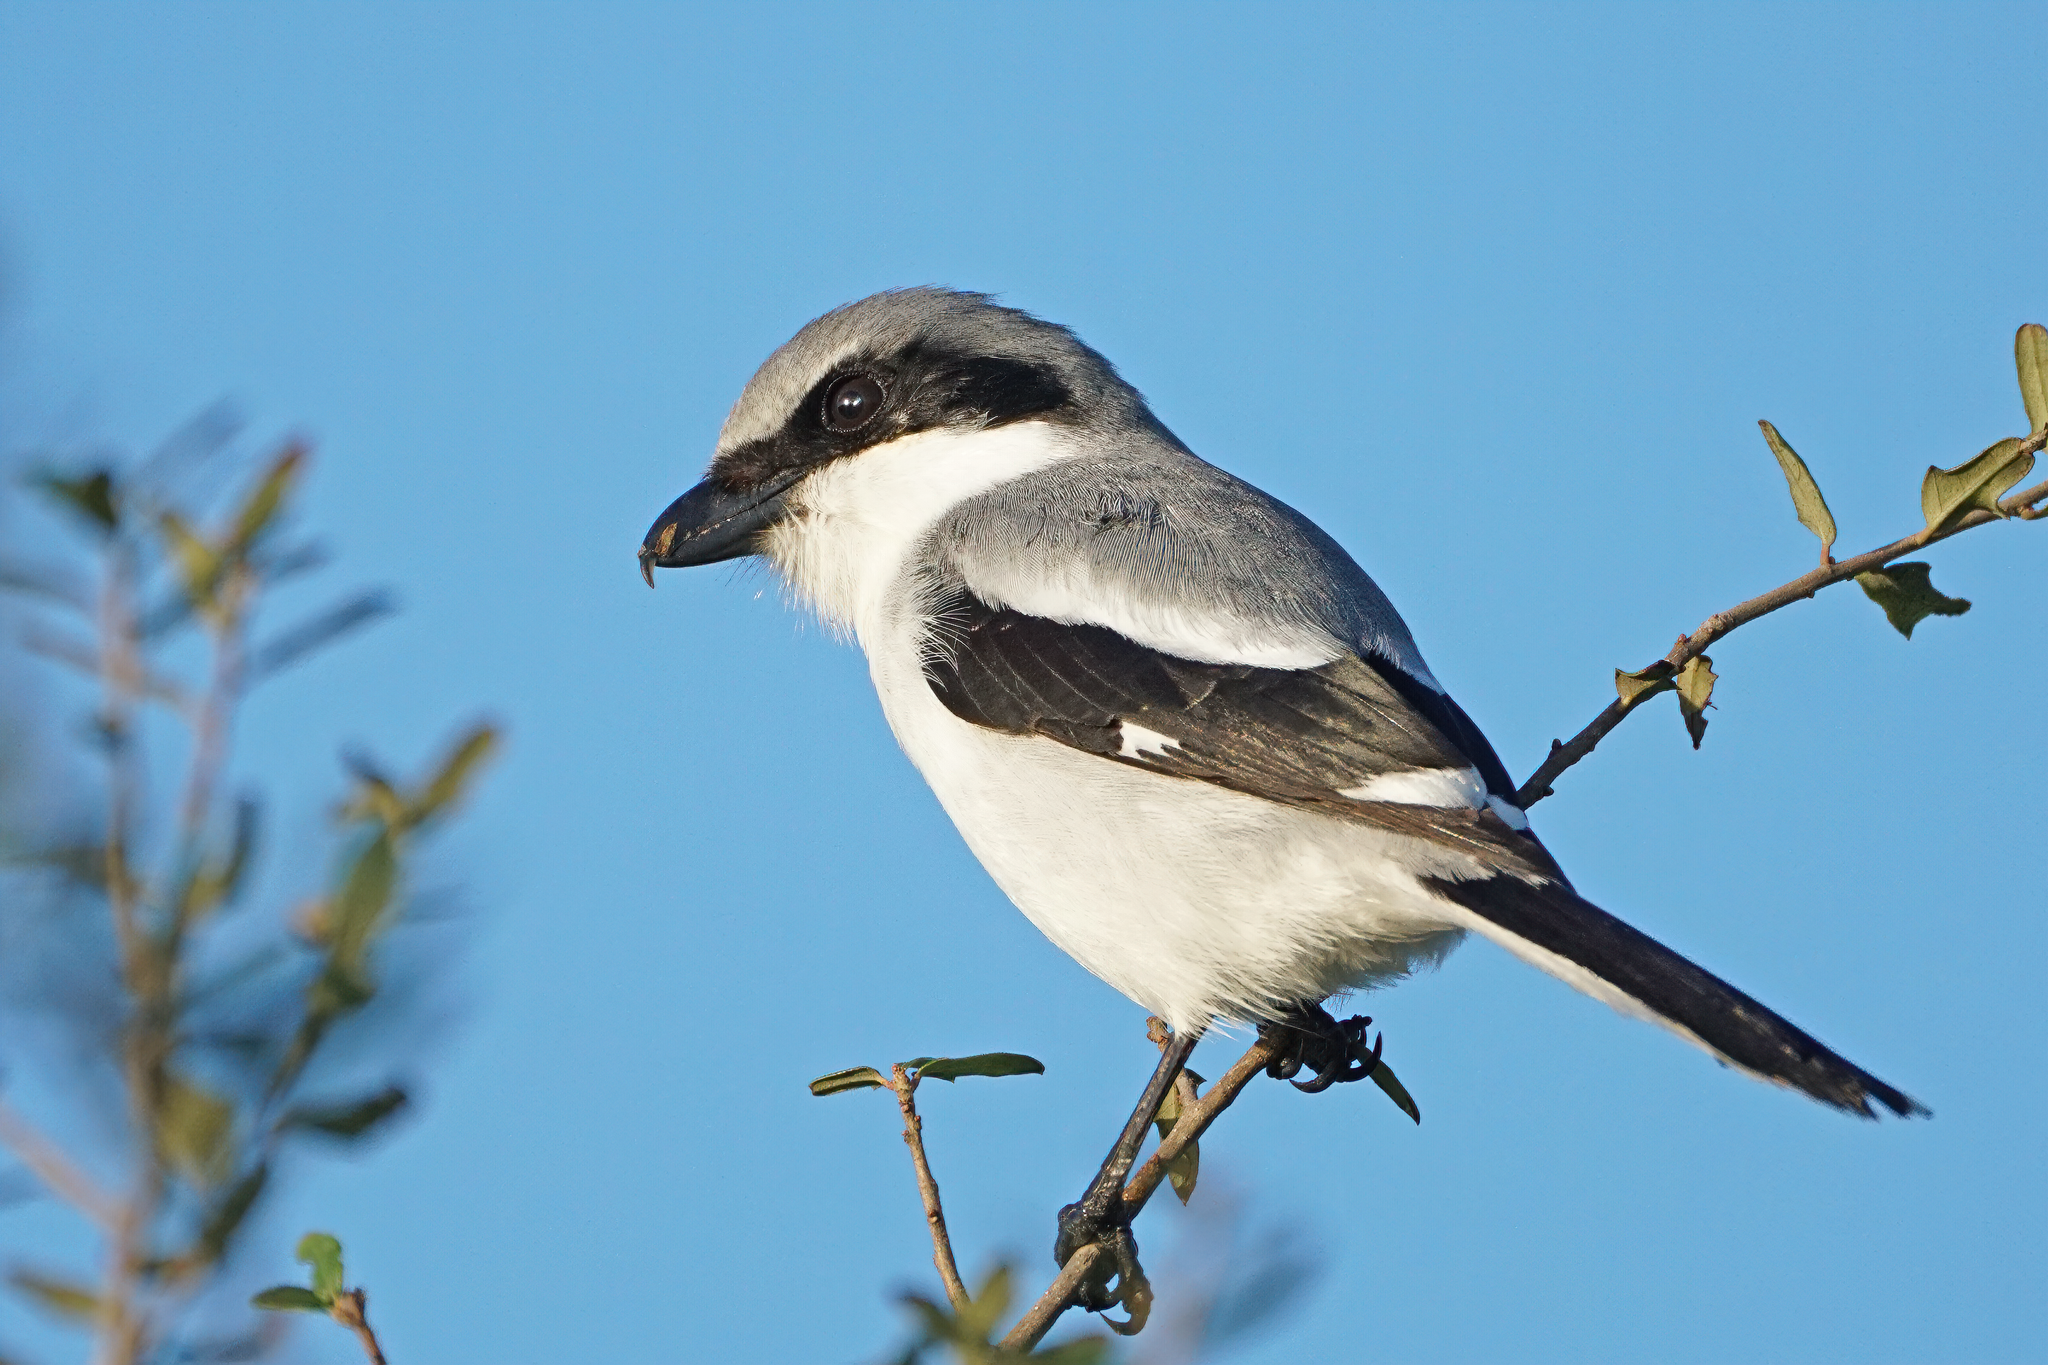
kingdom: Animalia
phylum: Chordata
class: Aves
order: Passeriformes
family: Laniidae
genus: Lanius
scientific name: Lanius ludovicianus
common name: Loggerhead shrike
